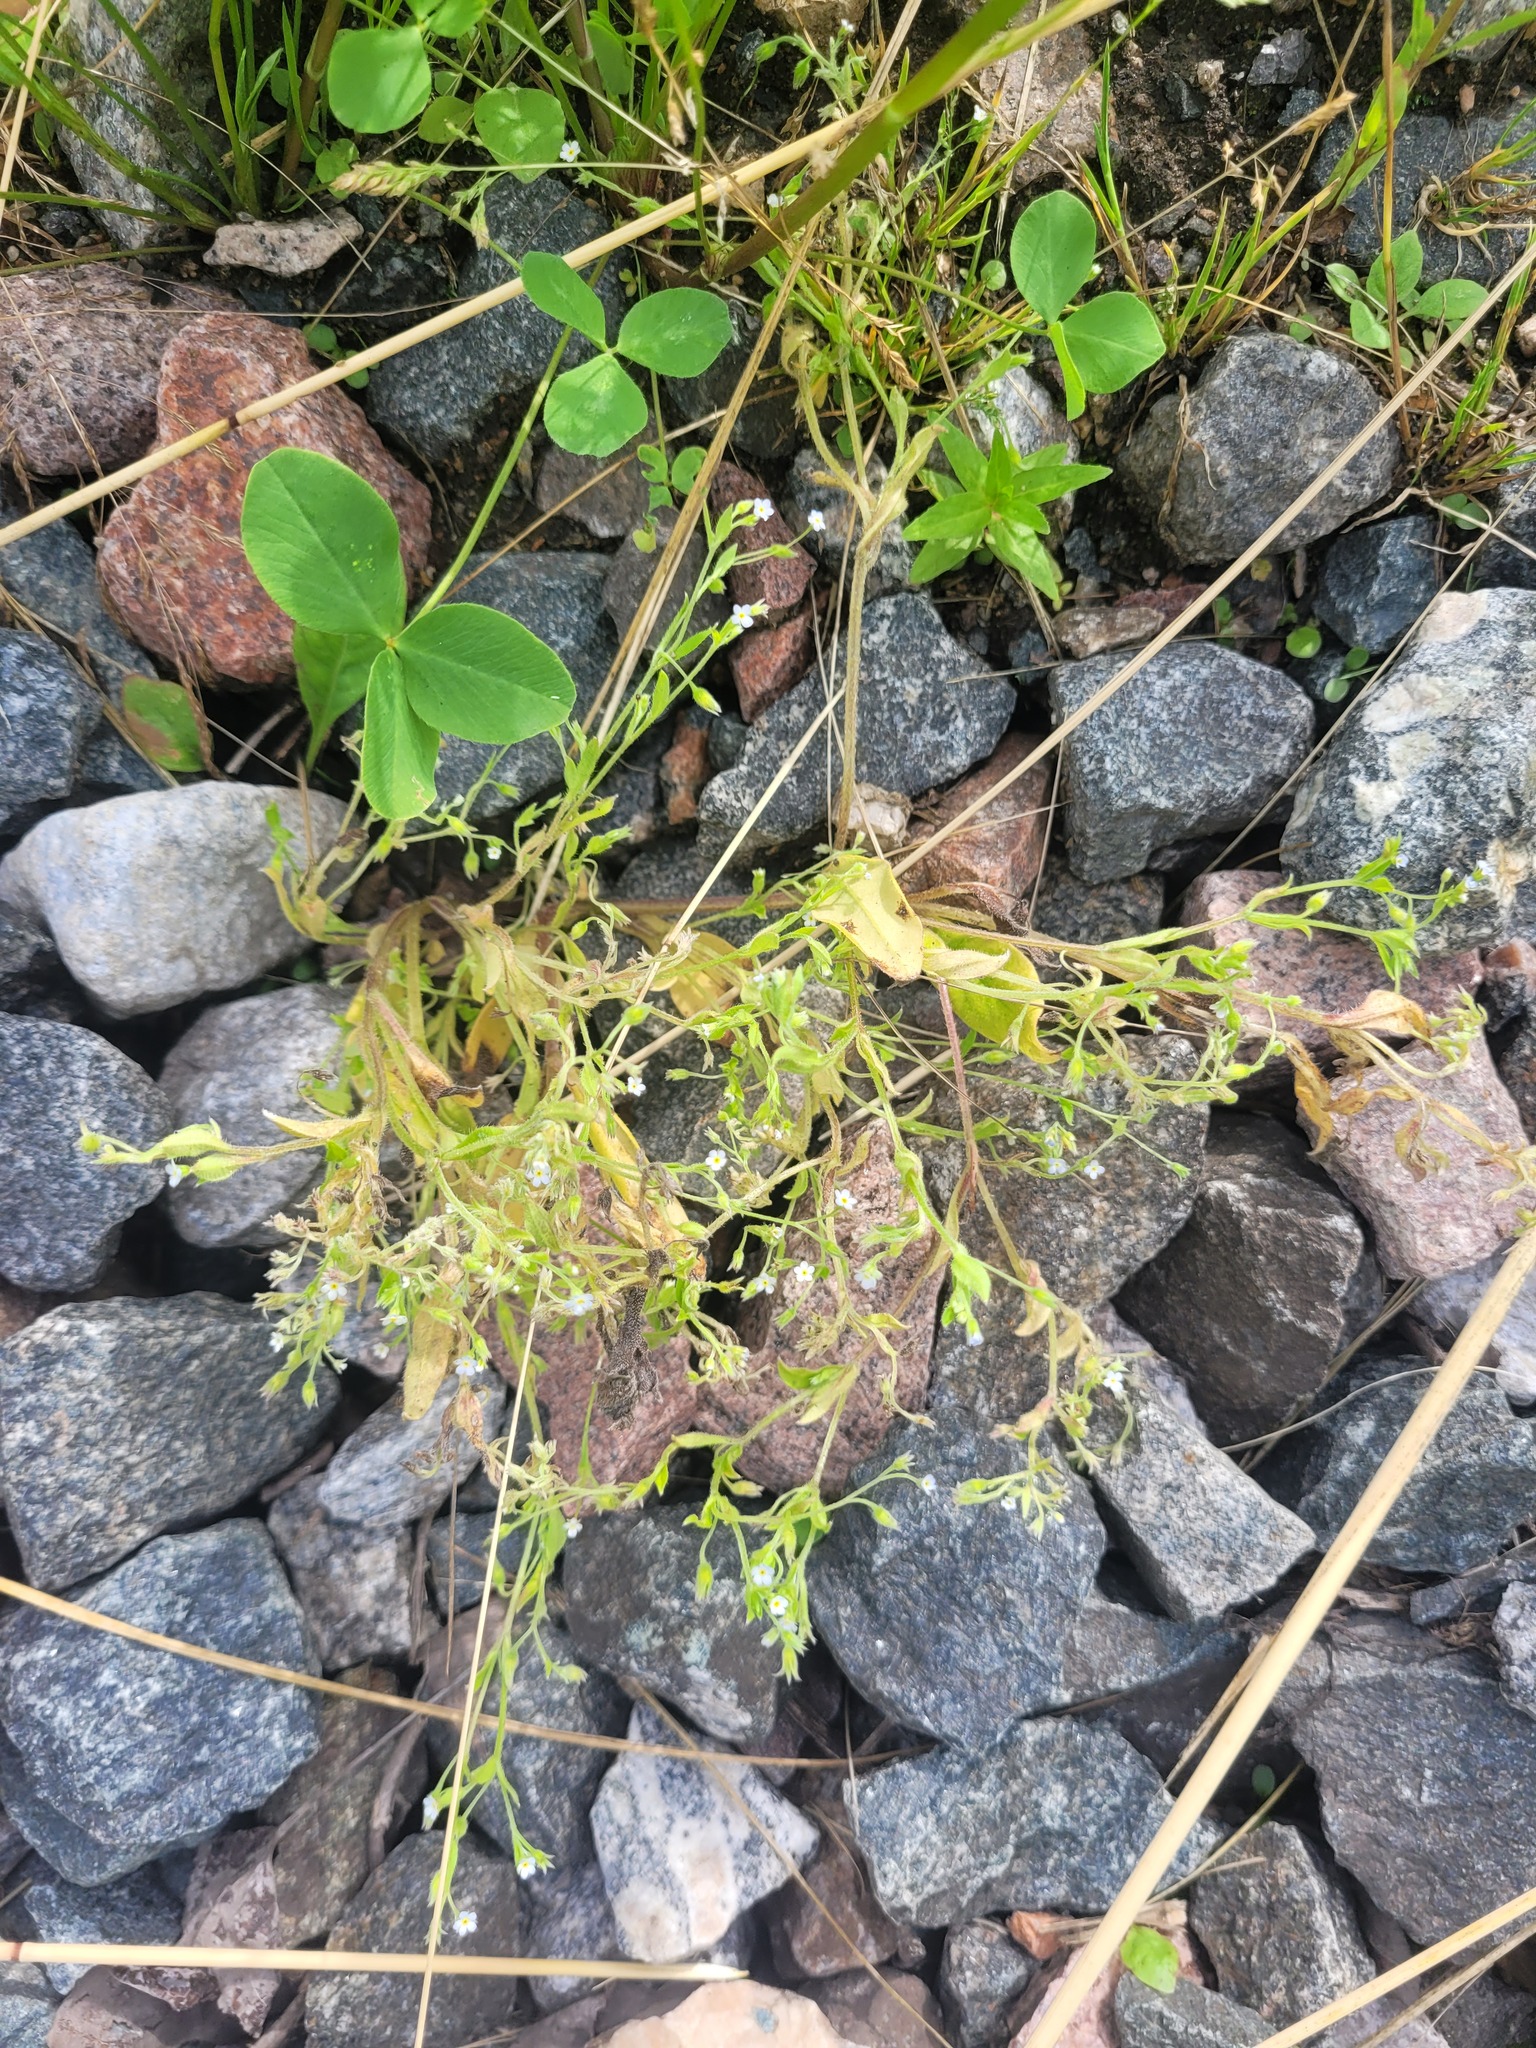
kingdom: Plantae
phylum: Tracheophyta
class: Magnoliopsida
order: Boraginales
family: Boraginaceae
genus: Myosotis
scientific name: Myosotis sparsiflora
